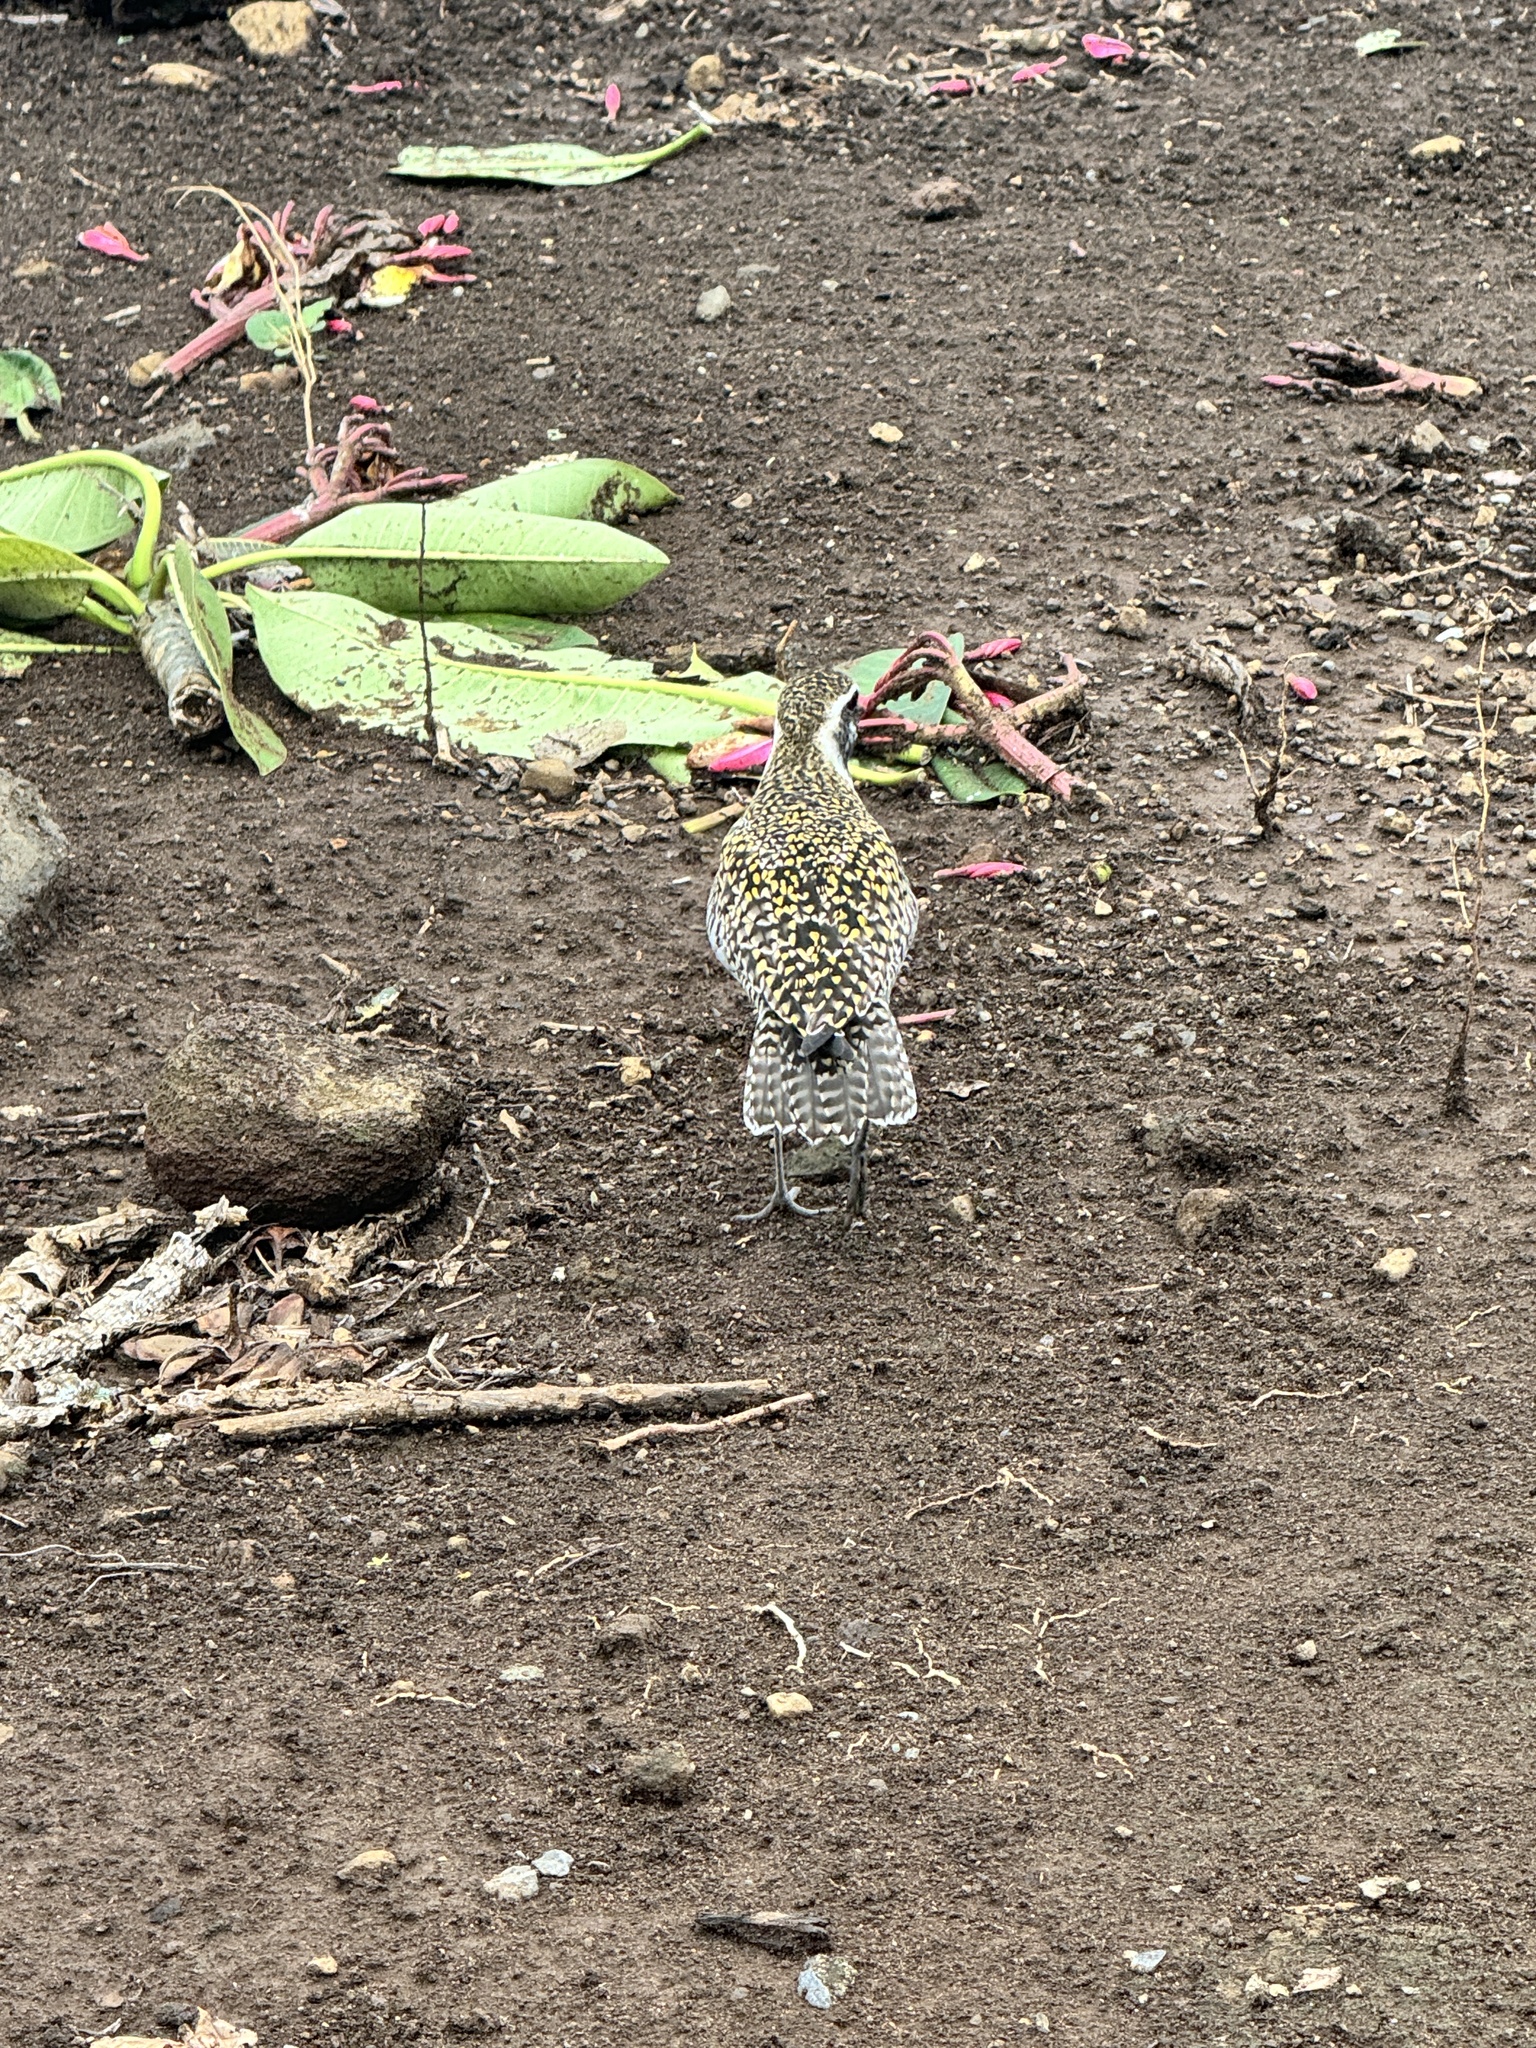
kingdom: Animalia
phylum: Chordata
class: Aves
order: Charadriiformes
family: Charadriidae
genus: Pluvialis
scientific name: Pluvialis fulva
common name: Pacific golden plover
